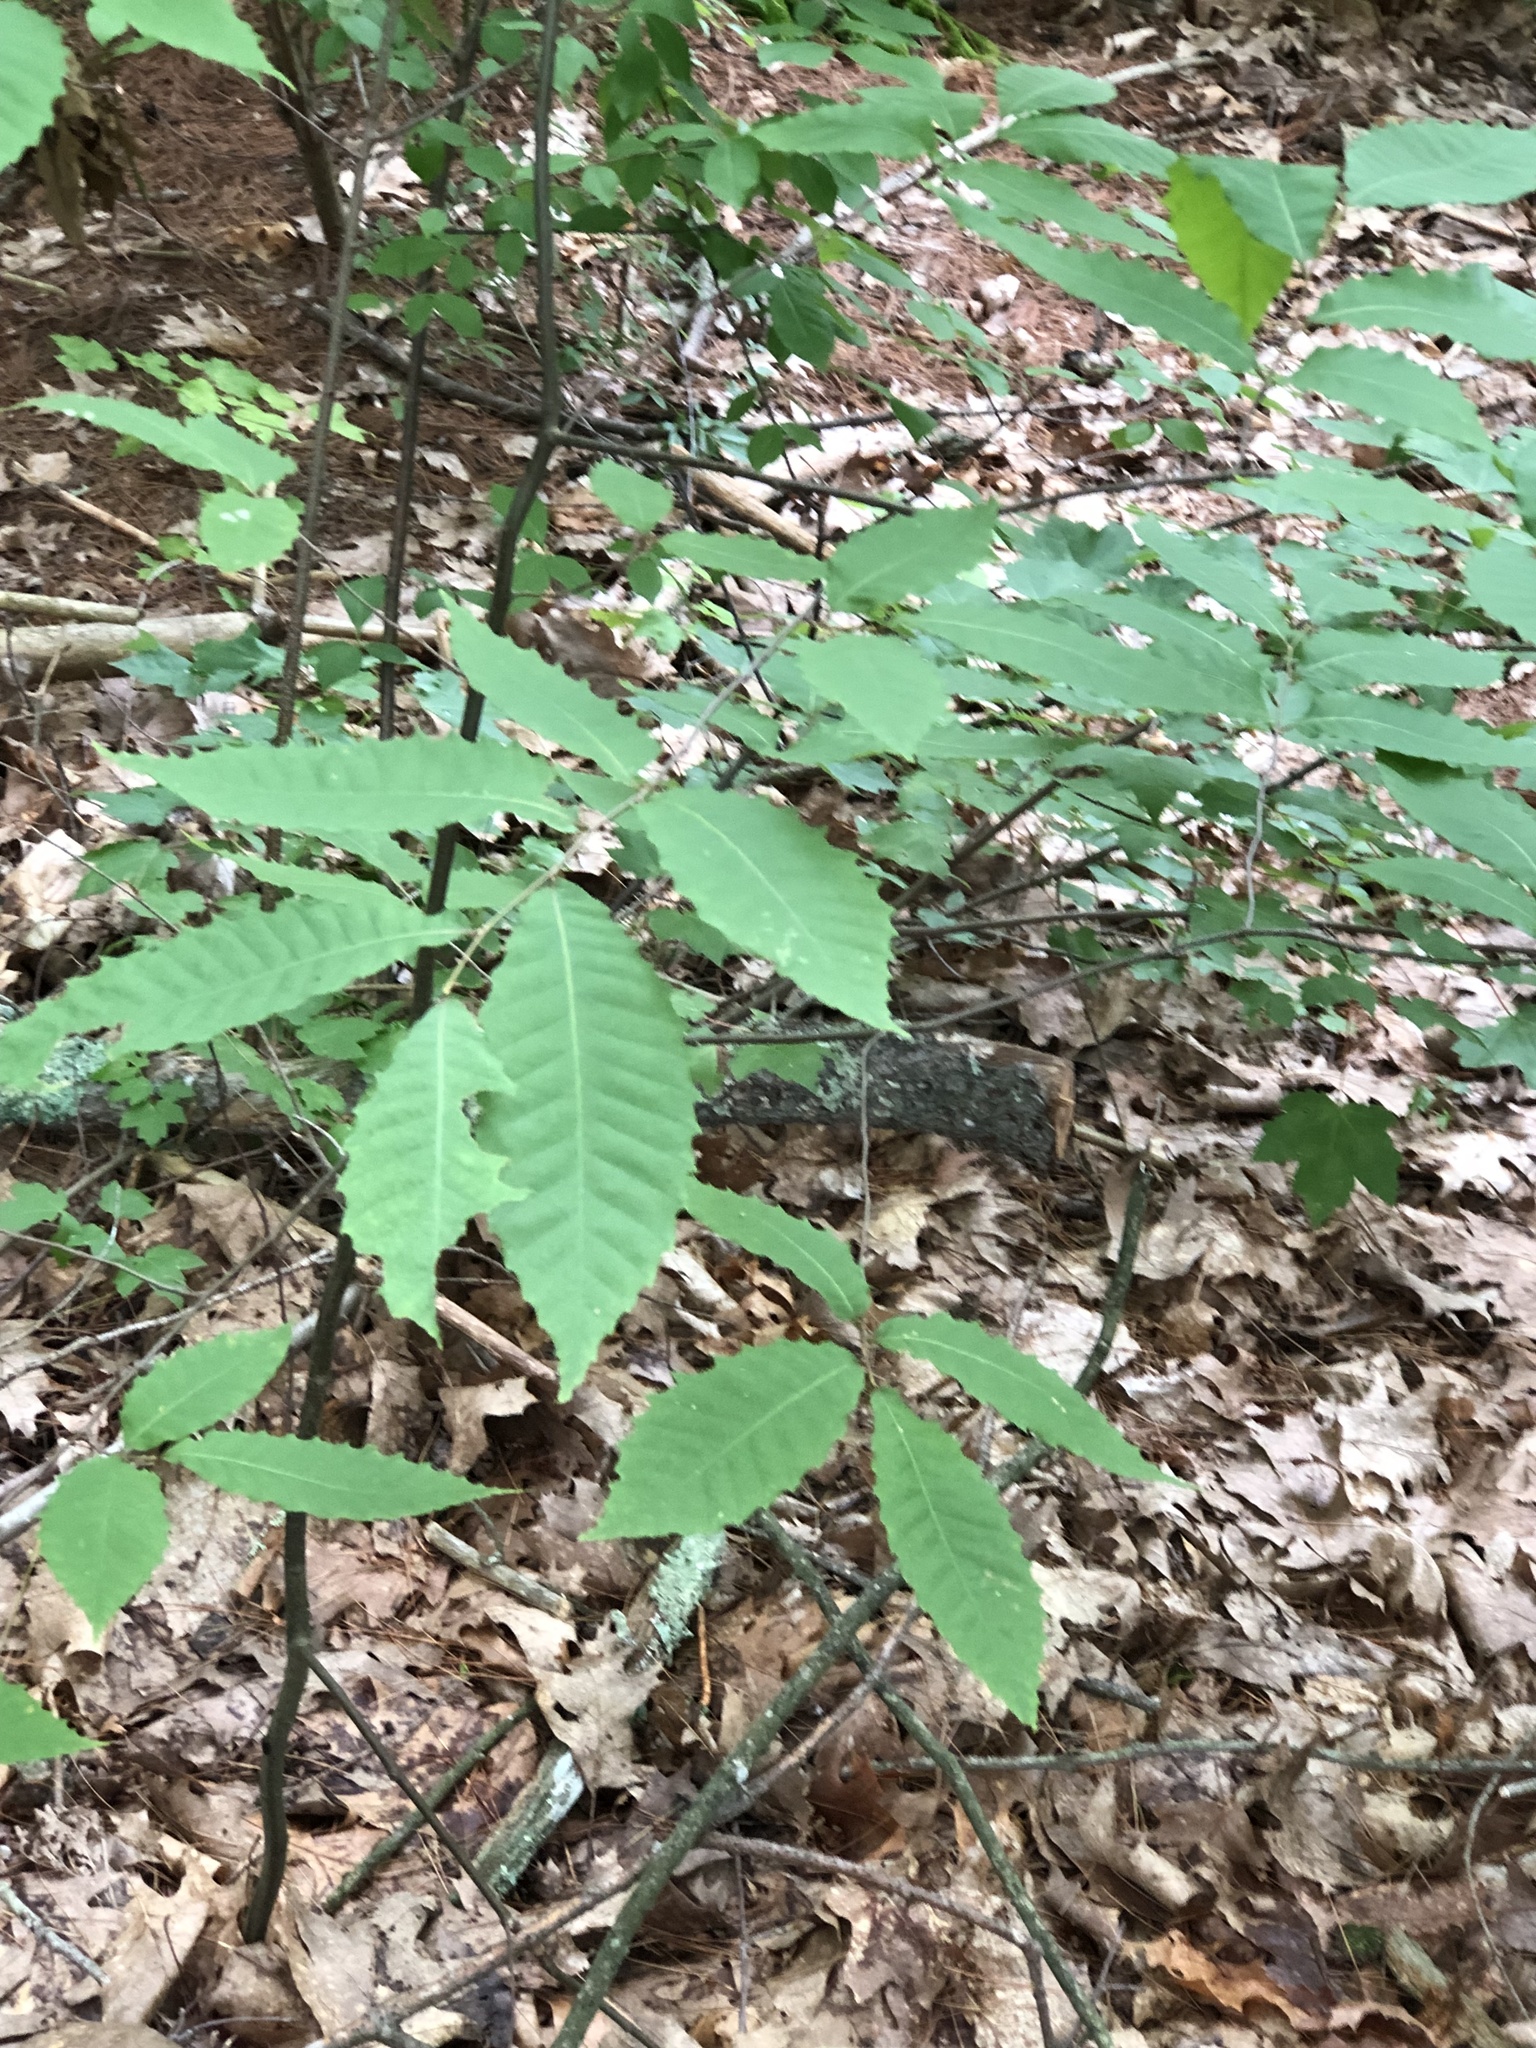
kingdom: Plantae
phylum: Tracheophyta
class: Magnoliopsida
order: Fagales
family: Fagaceae
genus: Castanea
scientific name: Castanea dentata
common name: American chestnut
